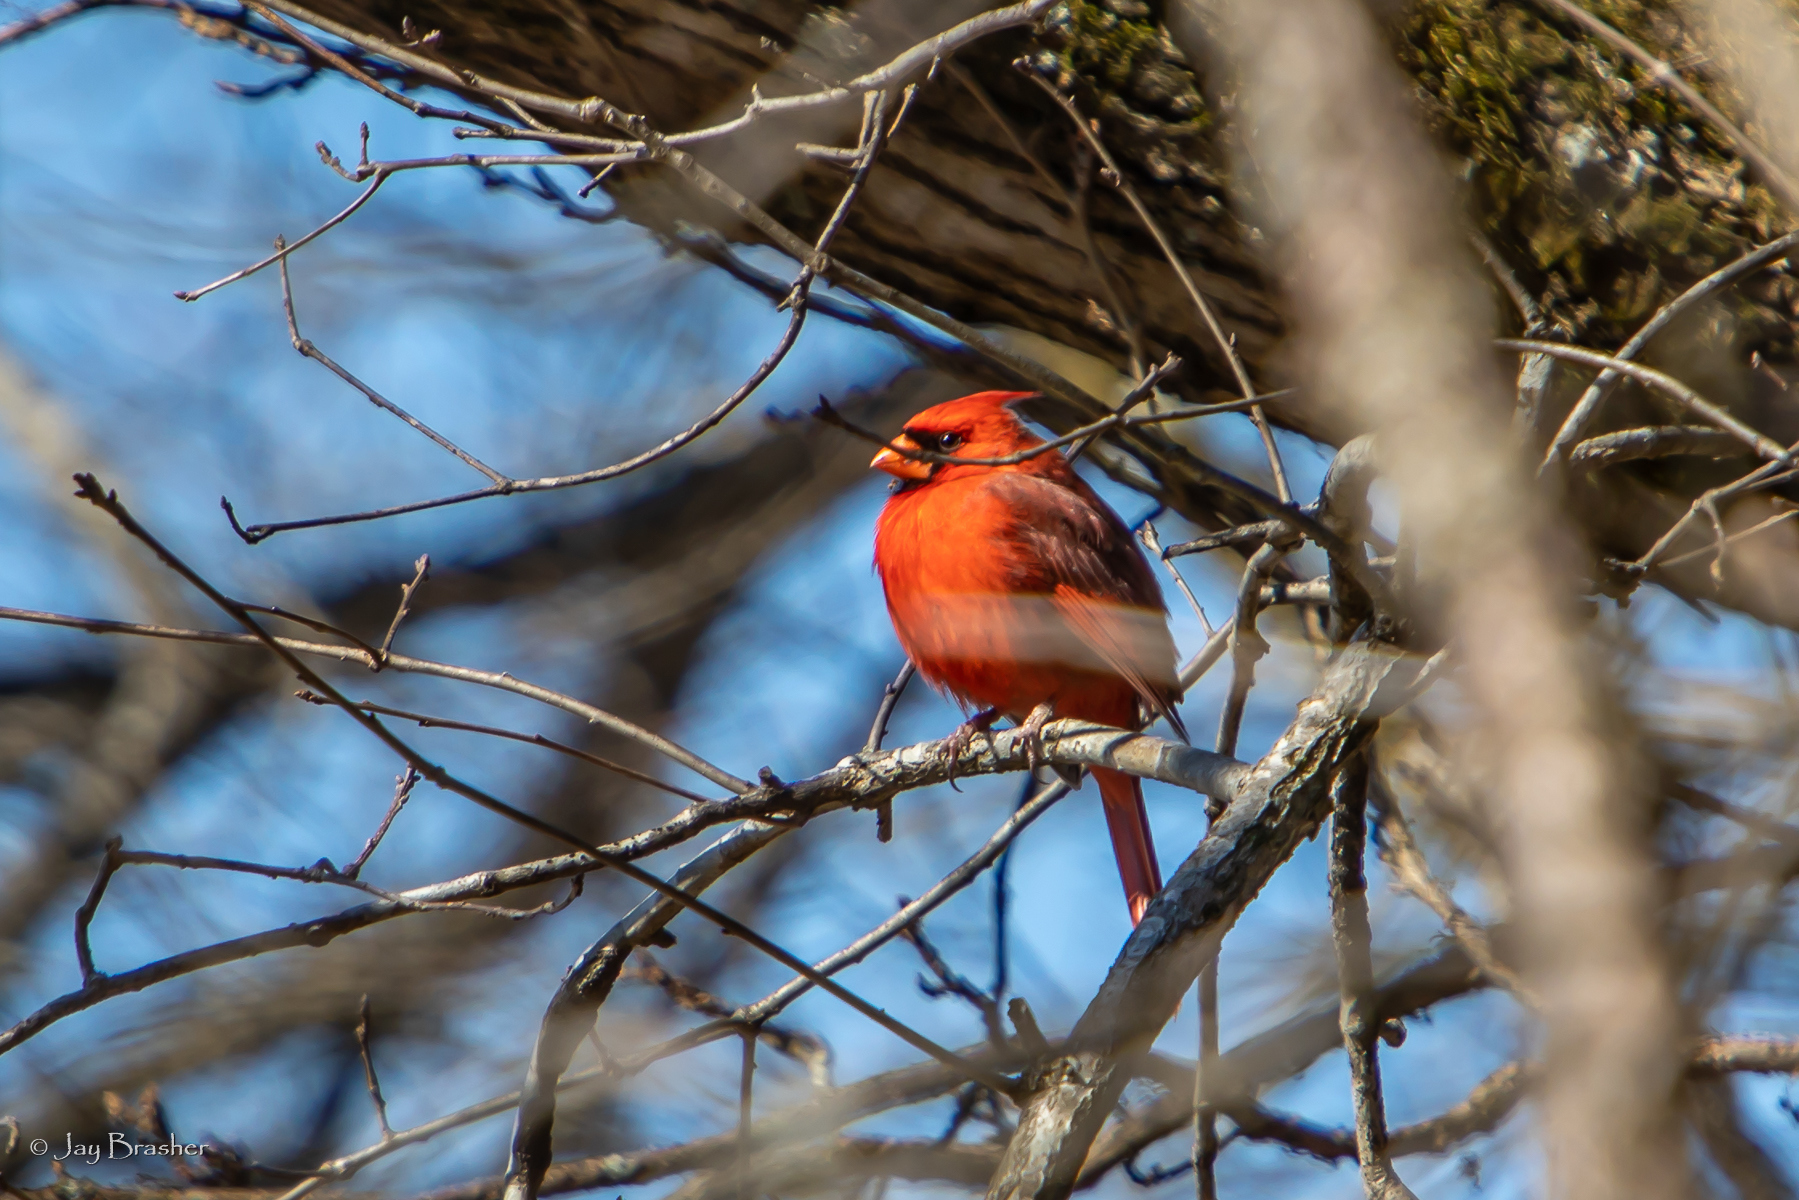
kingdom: Animalia
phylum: Chordata
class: Aves
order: Passeriformes
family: Cardinalidae
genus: Cardinalis
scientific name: Cardinalis cardinalis
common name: Northern cardinal
